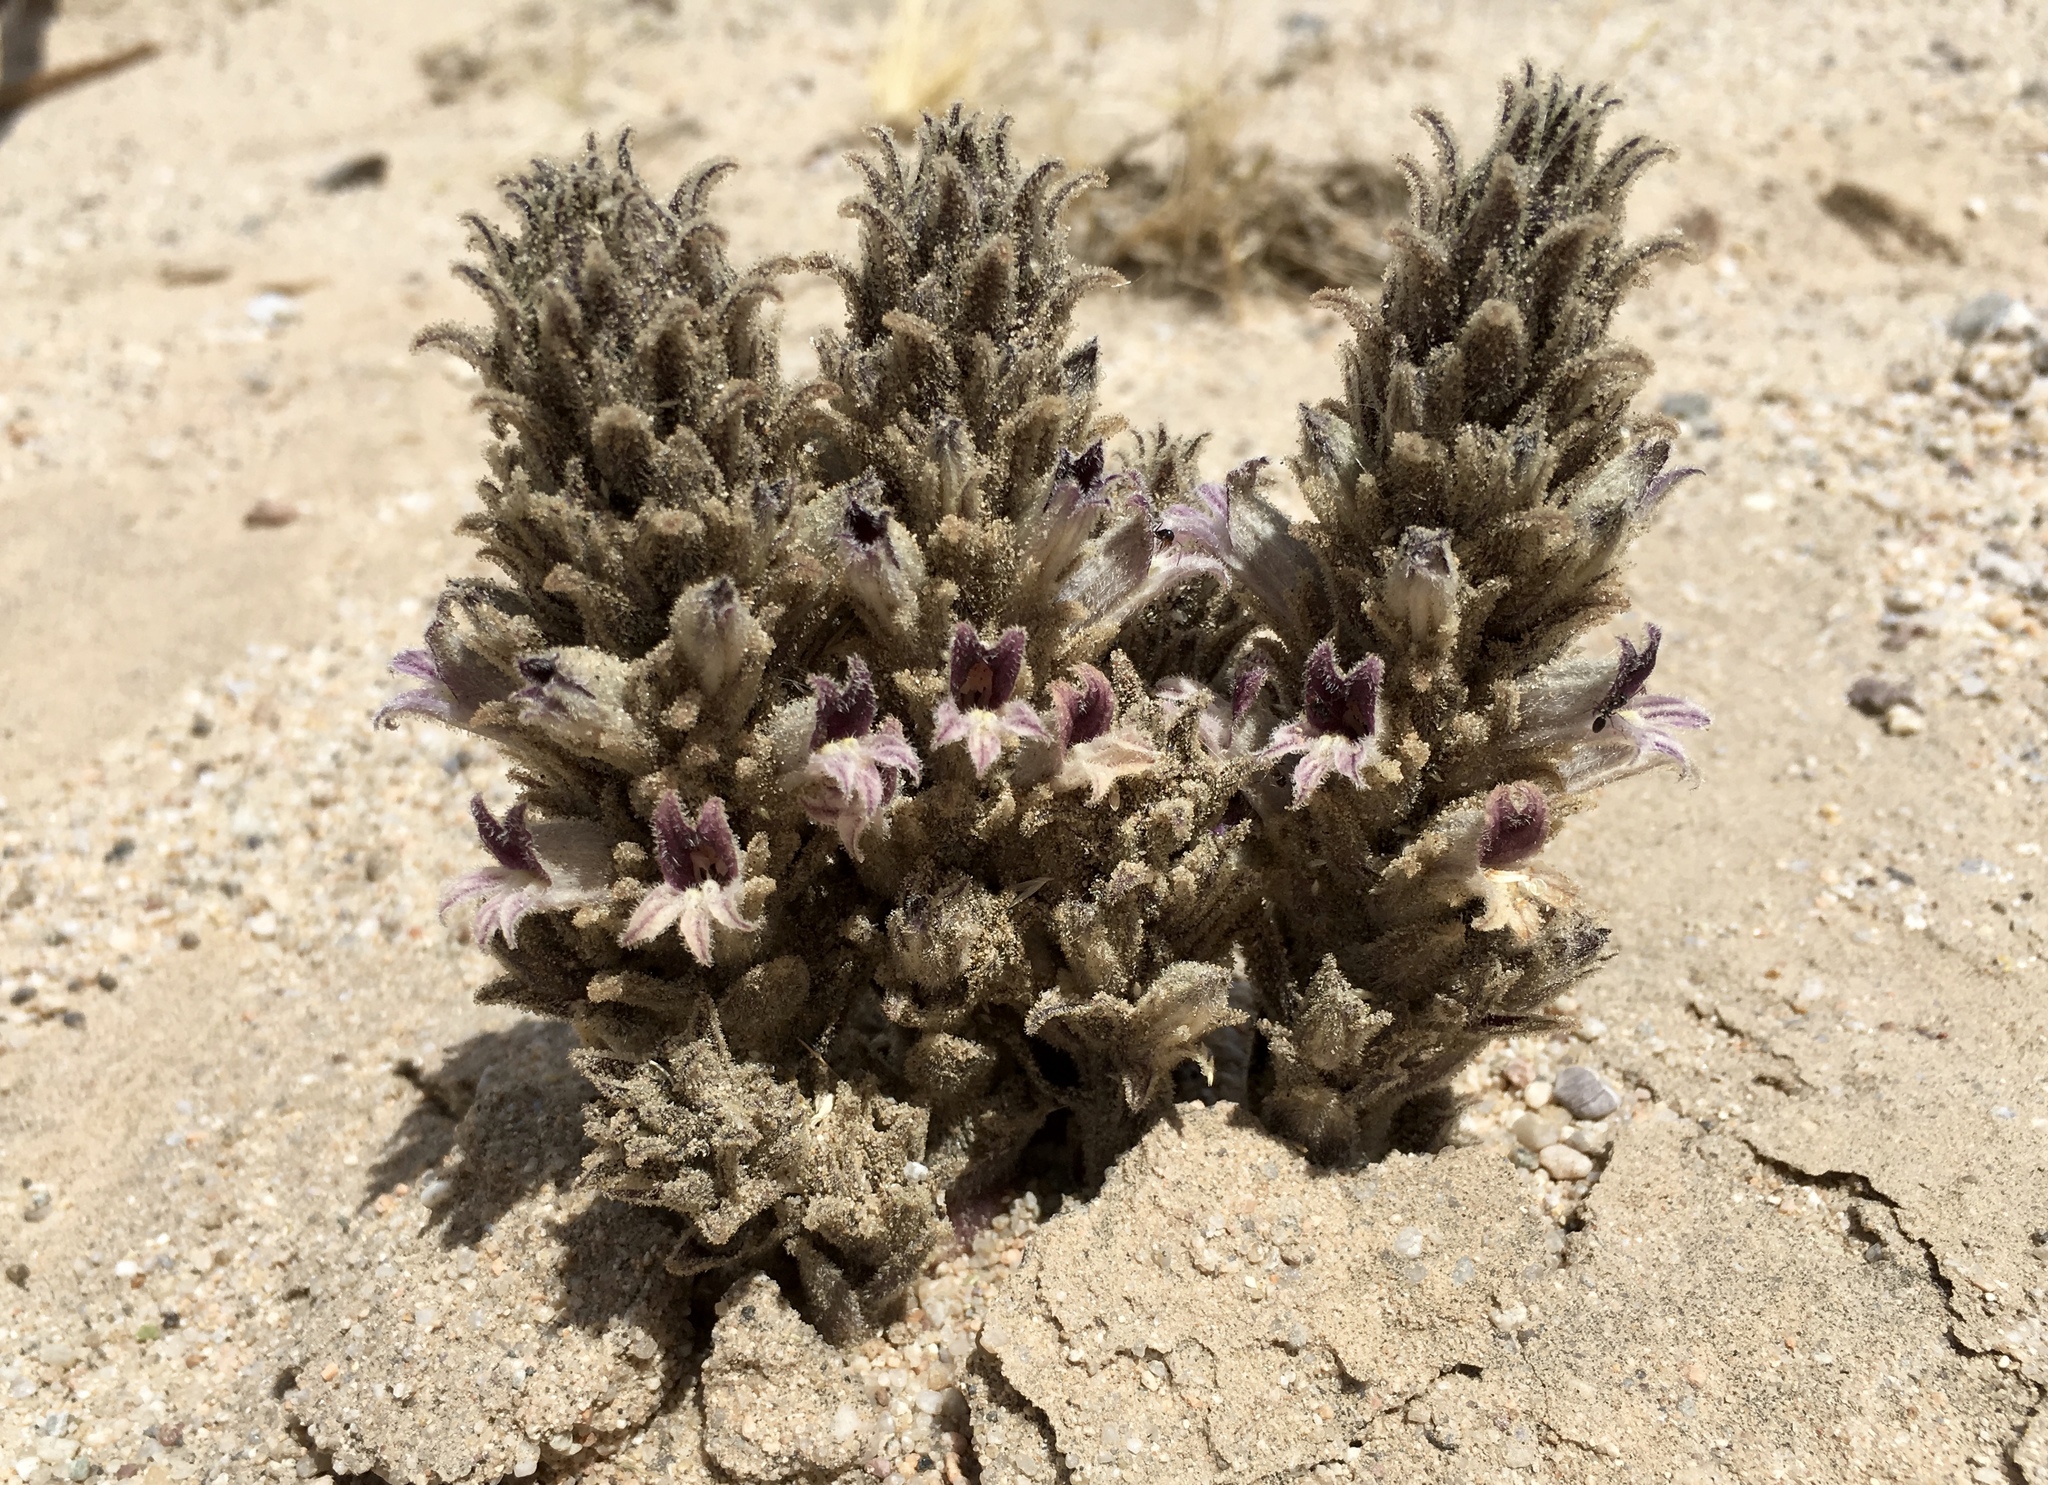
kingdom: Plantae
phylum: Tracheophyta
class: Magnoliopsida
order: Lamiales
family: Orobanchaceae
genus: Aphyllon
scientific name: Aphyllon cooperi
